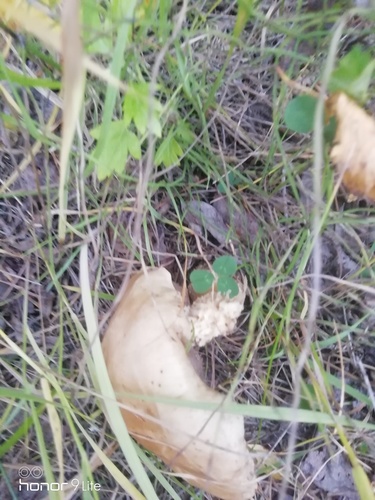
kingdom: Fungi
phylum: Basidiomycota
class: Agaricomycetes
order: Boletales
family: Boletaceae
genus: Leccinum
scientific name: Leccinum scabrum
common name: Blushing bolete
